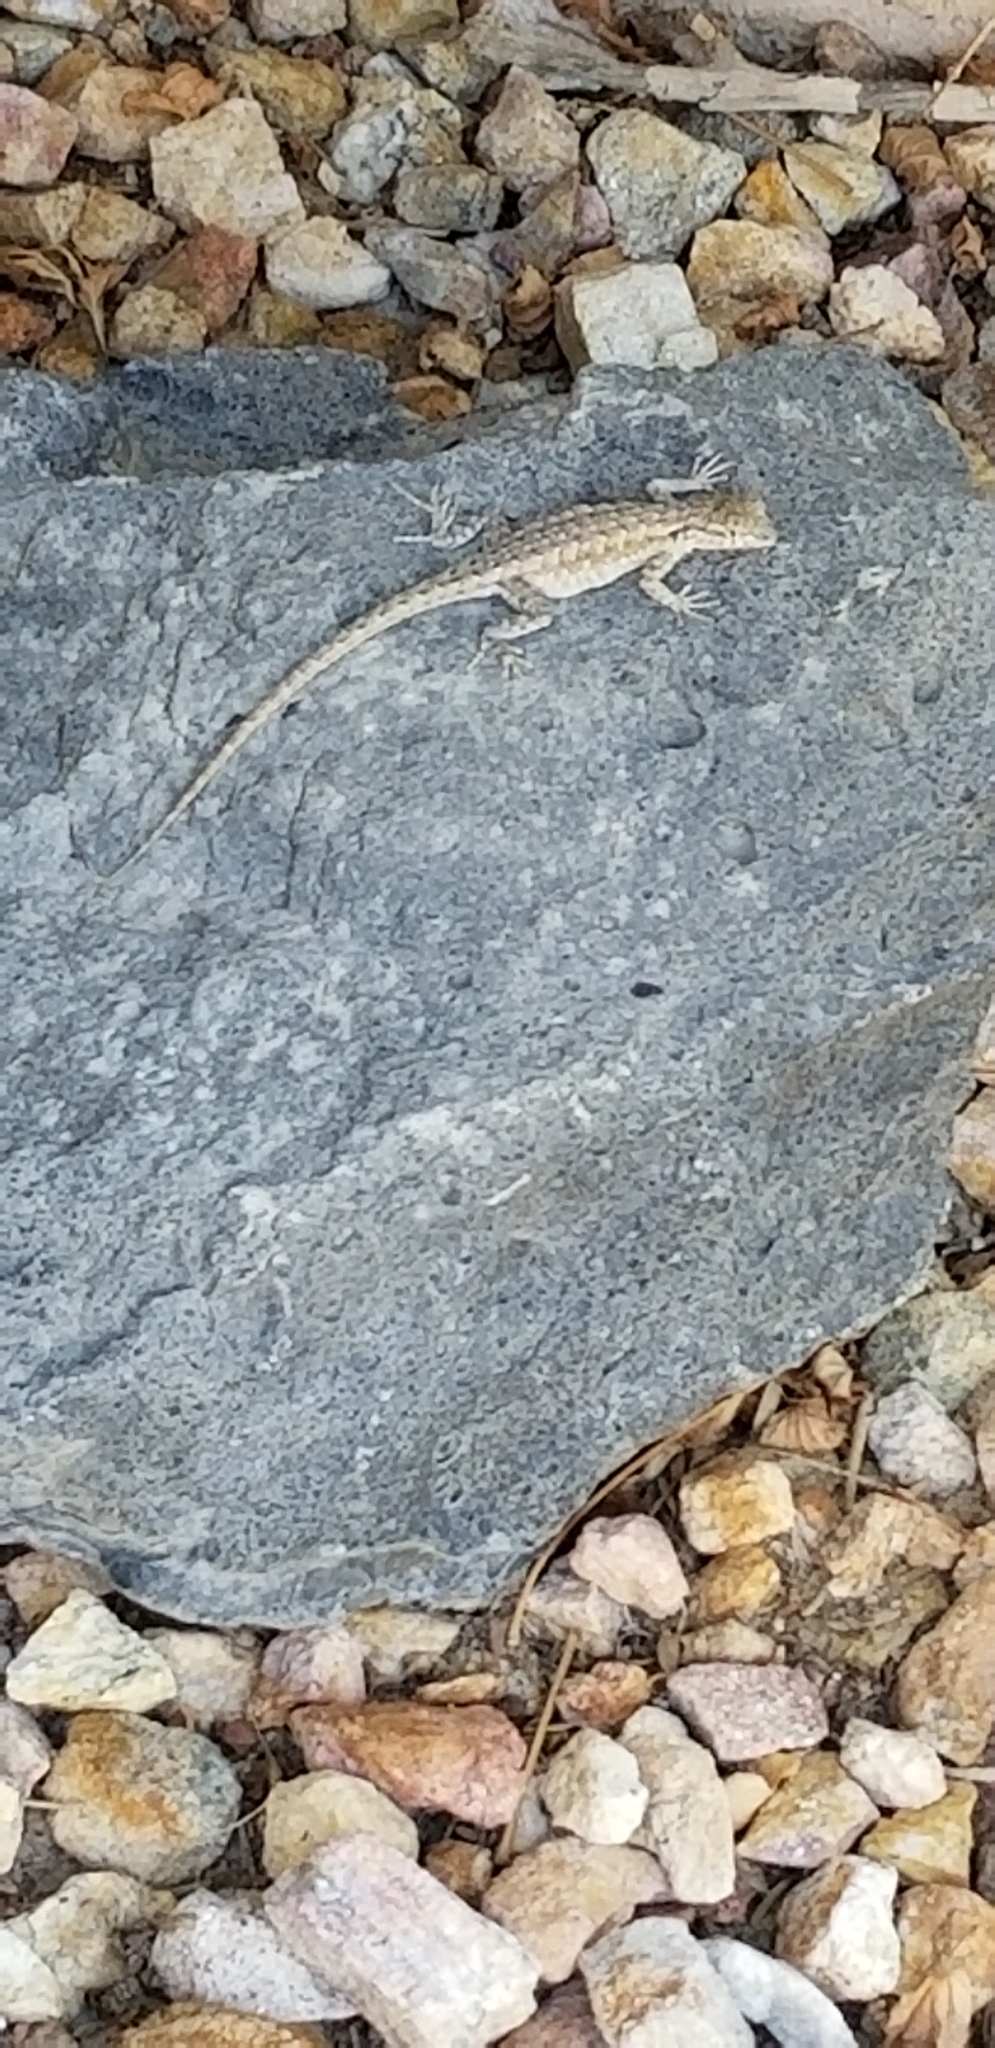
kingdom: Animalia
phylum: Chordata
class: Squamata
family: Phrynosomatidae
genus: Uta
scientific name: Uta stansburiana
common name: Side-blotched lizard
